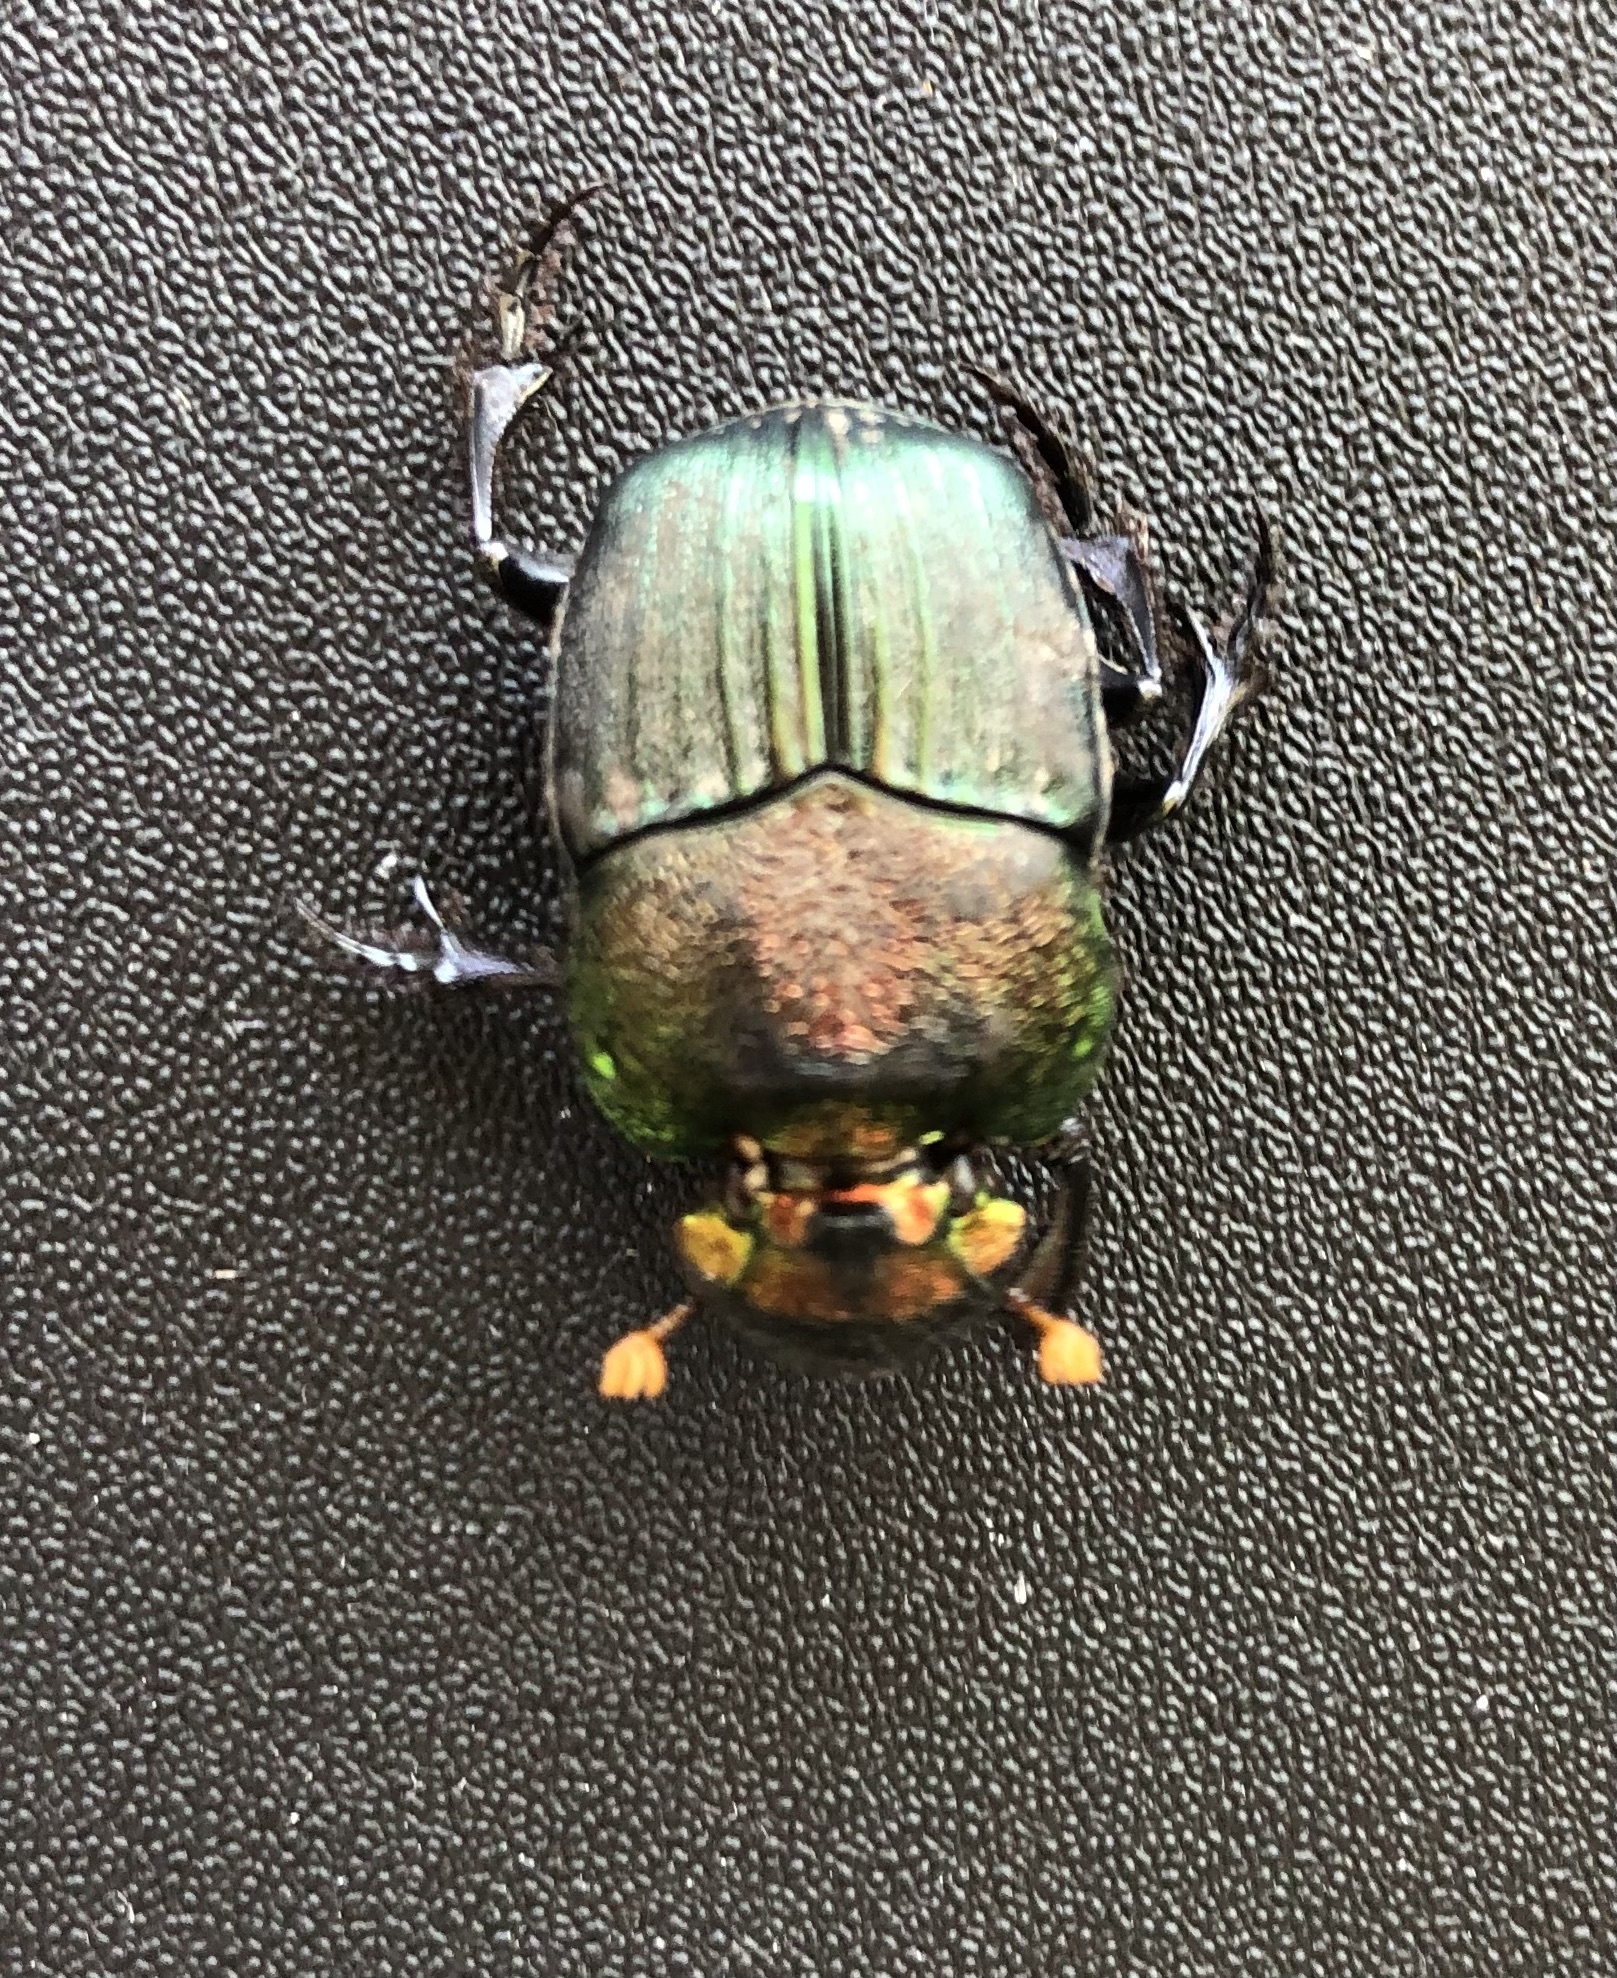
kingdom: Animalia
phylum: Arthropoda
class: Insecta
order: Coleoptera
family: Scarabaeidae
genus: Phanaeus
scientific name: Phanaeus vindex
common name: Rainbow scarab
